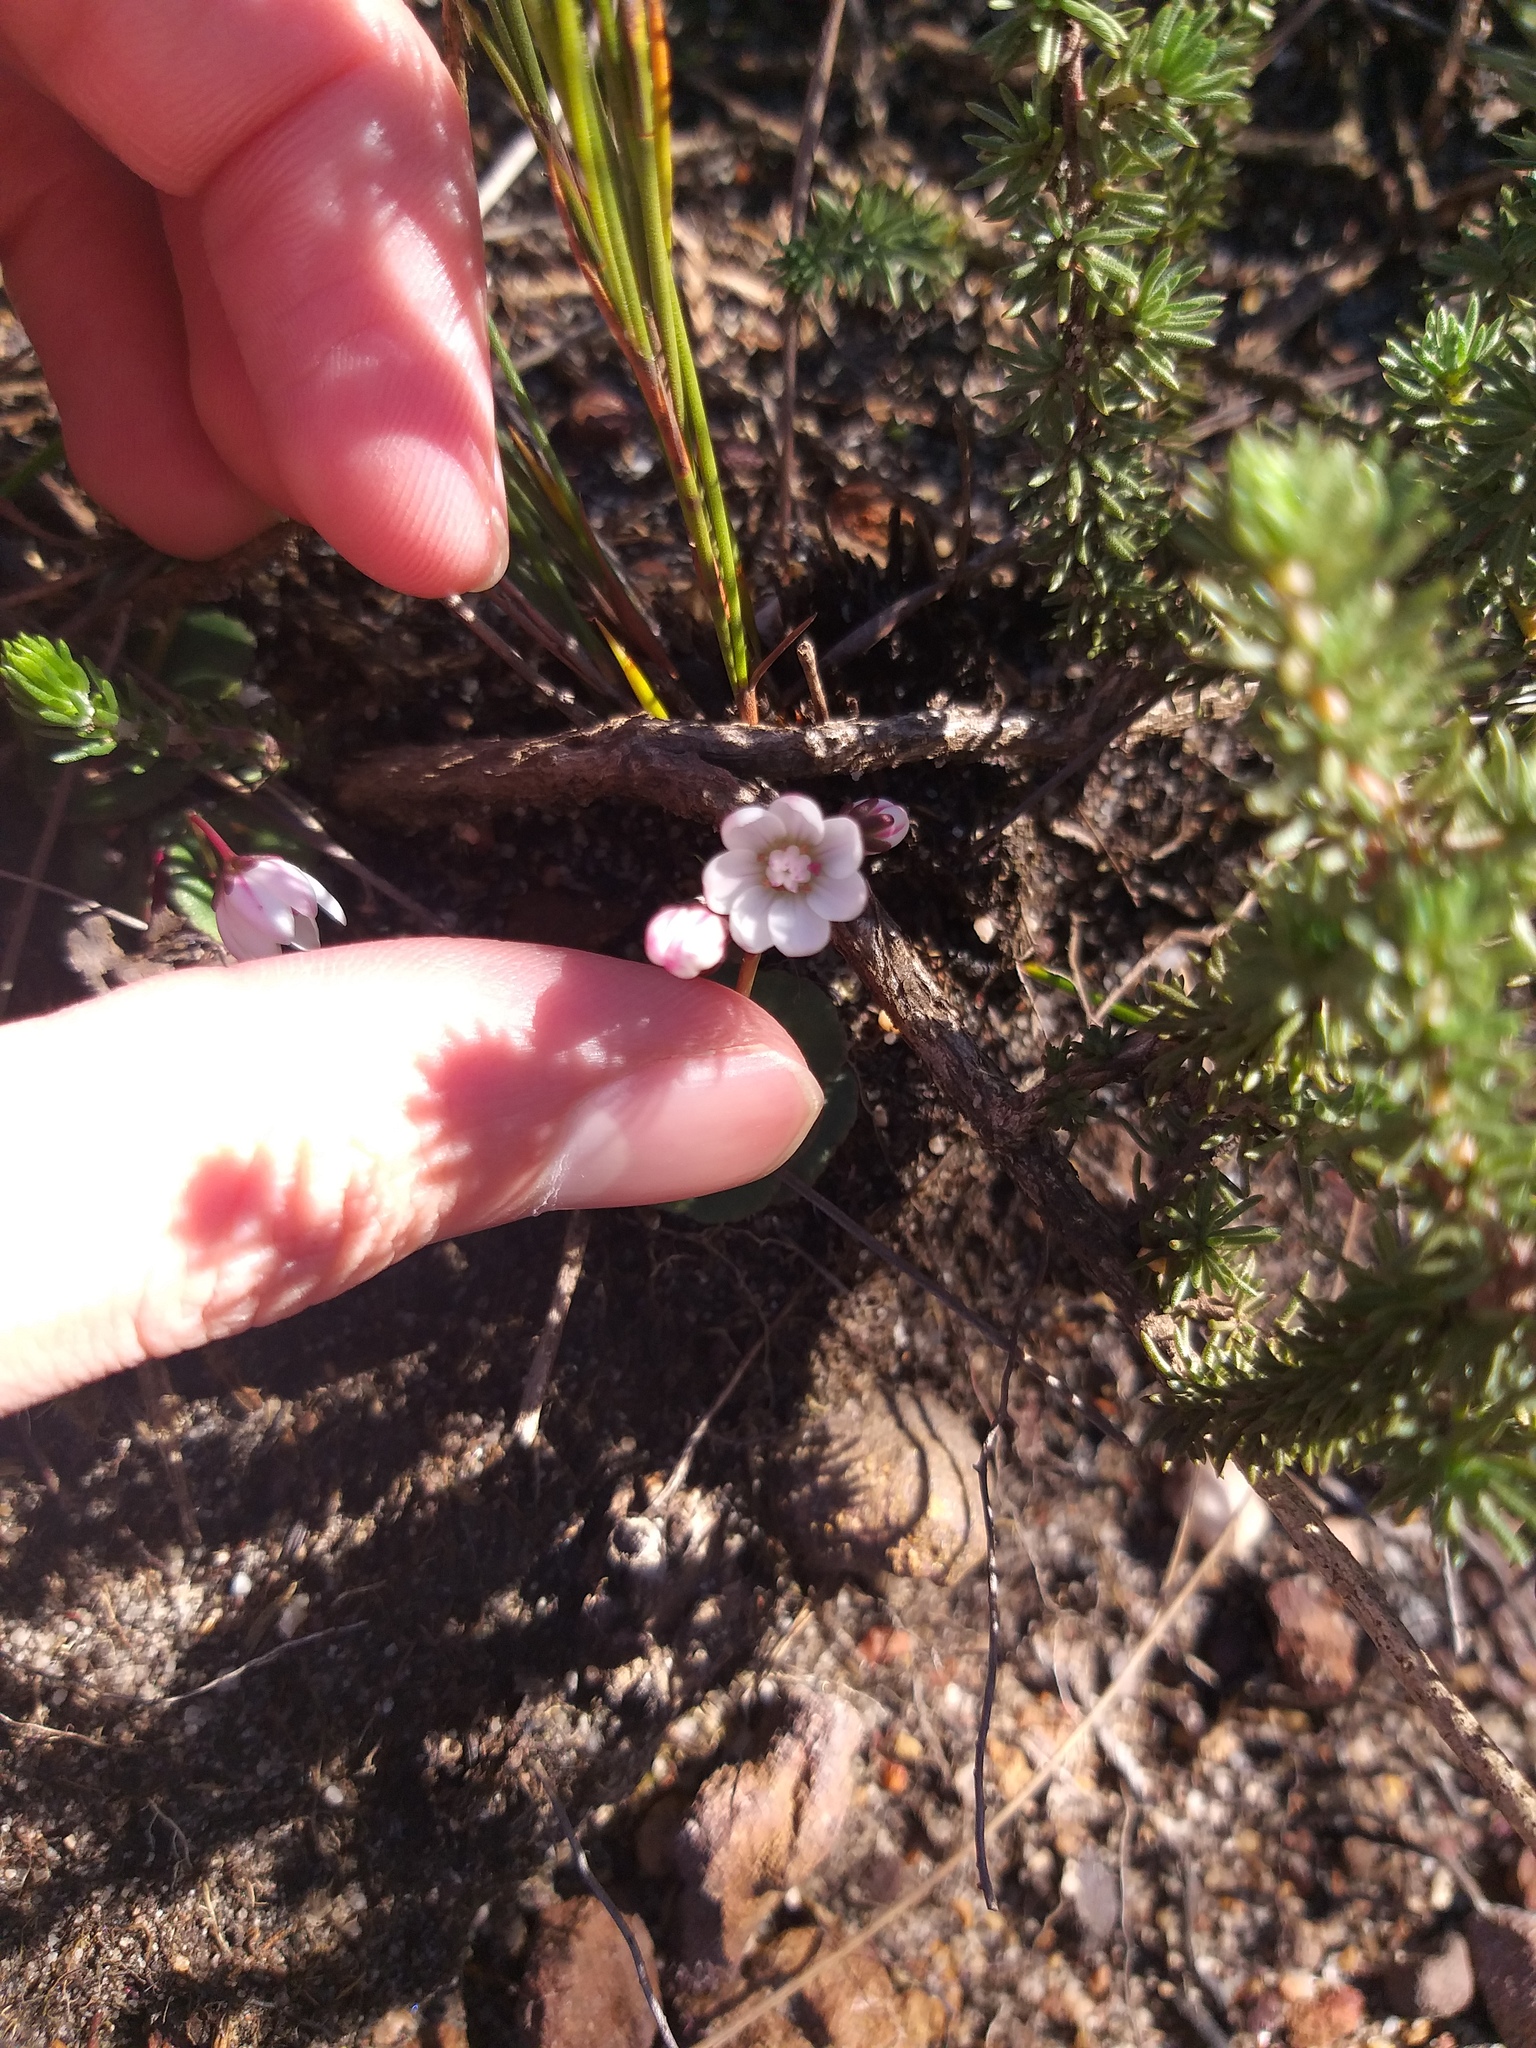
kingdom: Plantae
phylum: Tracheophyta
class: Magnoliopsida
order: Saxifragales
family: Crassulaceae
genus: Crassula
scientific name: Crassula capensis
